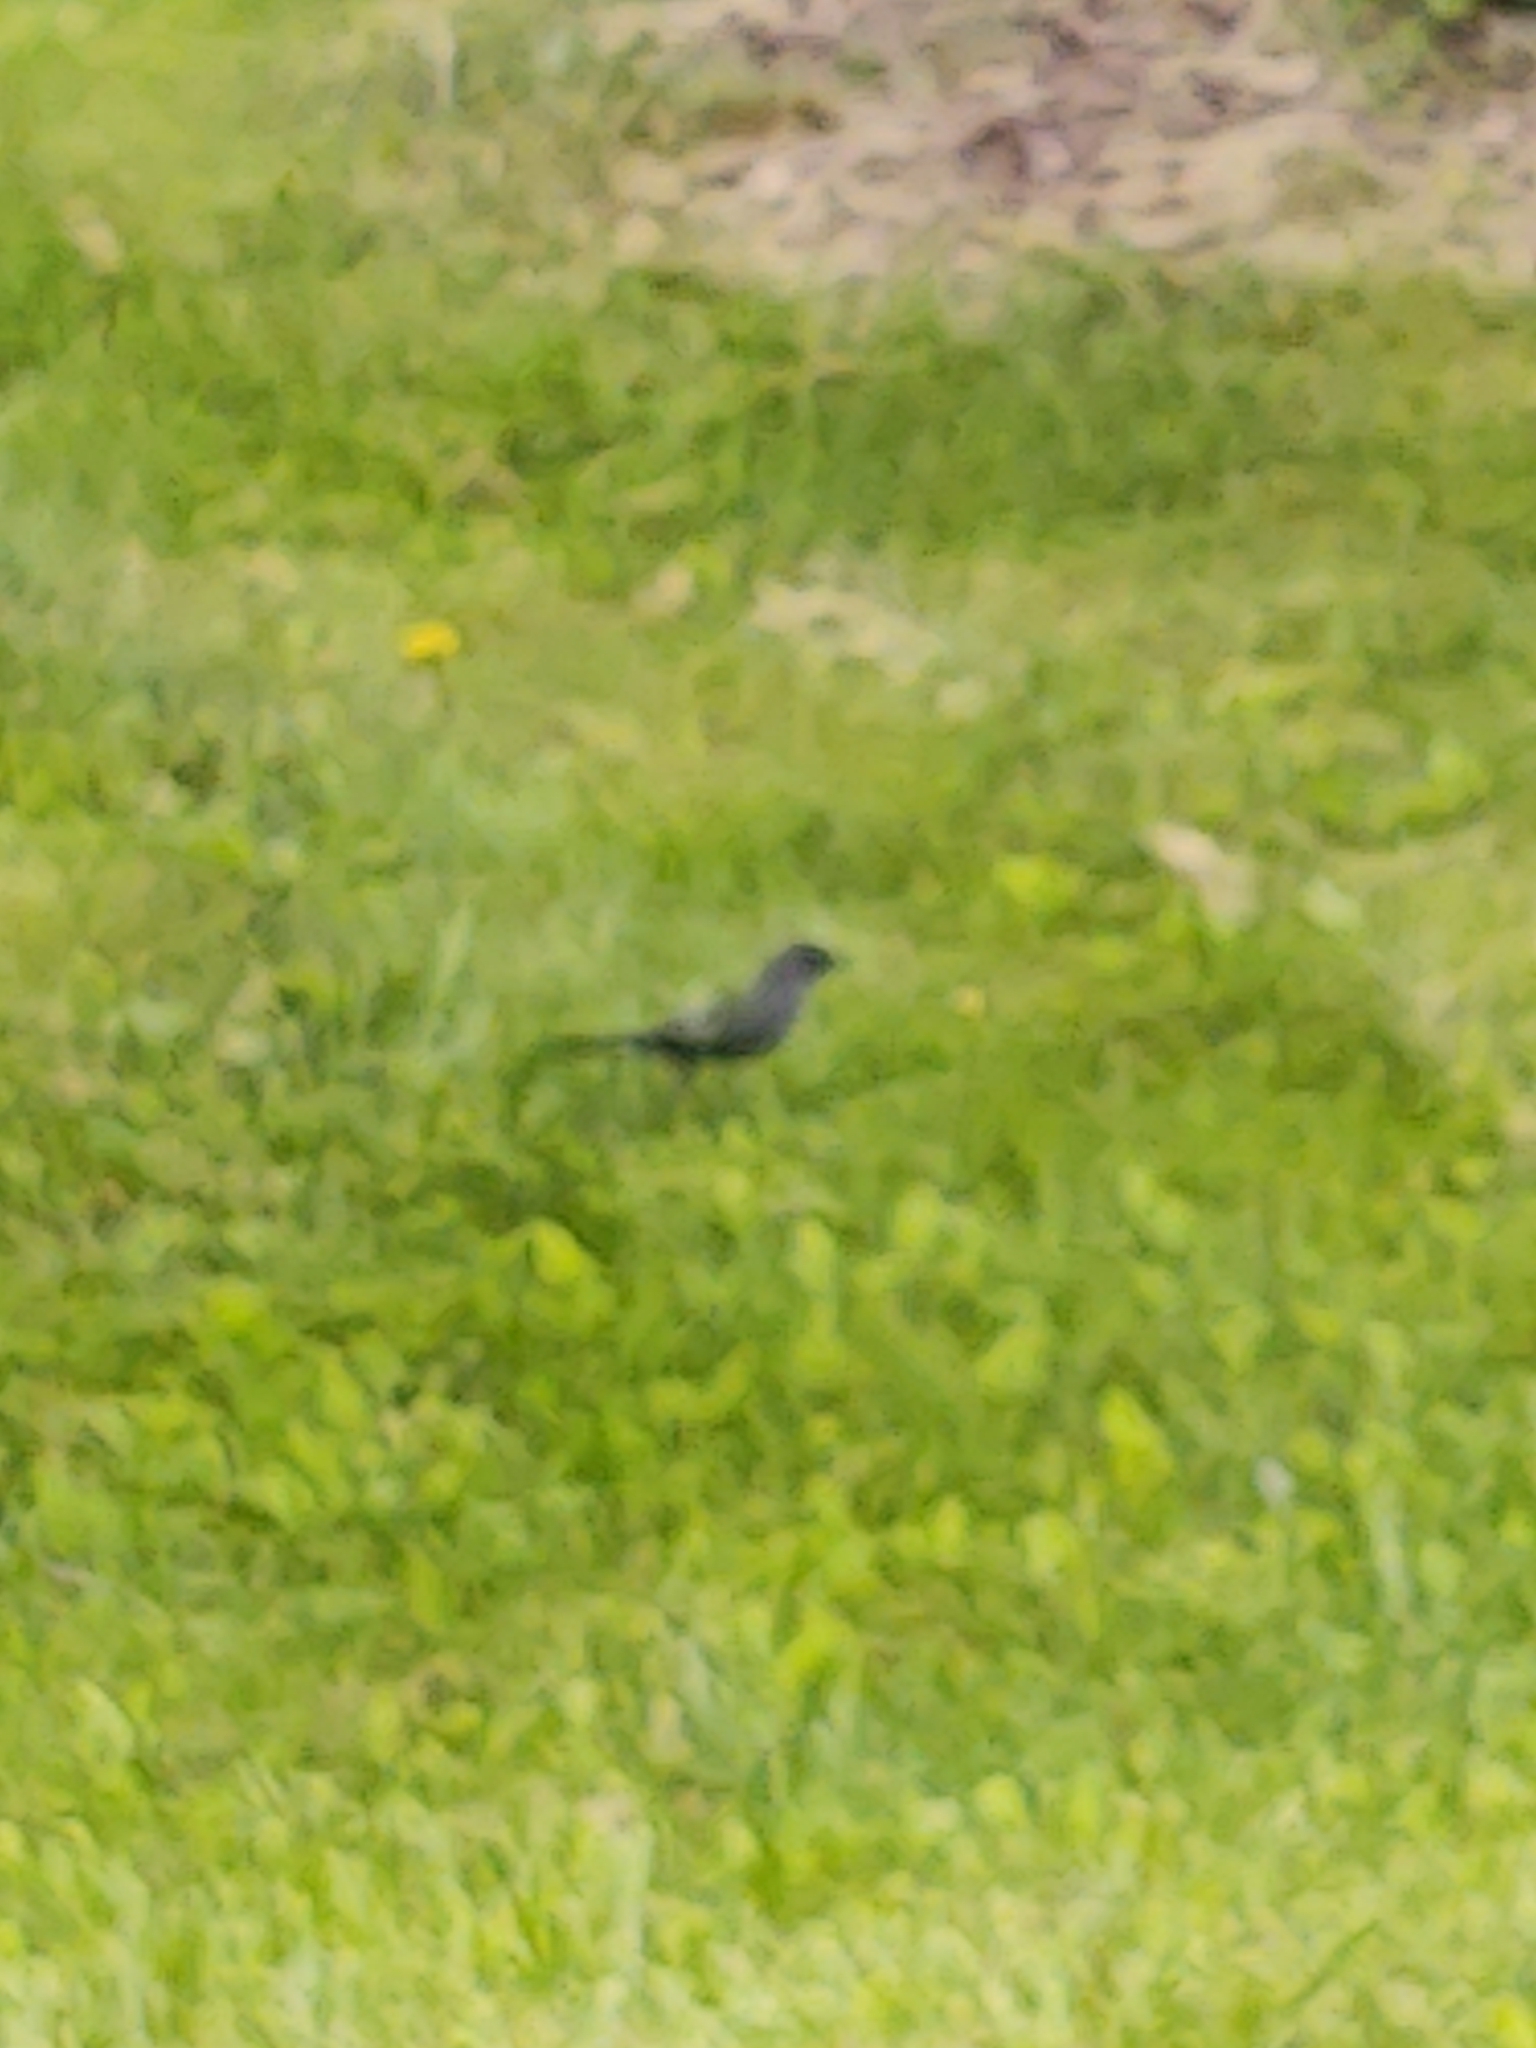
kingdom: Animalia
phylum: Chordata
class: Aves
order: Passeriformes
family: Mimidae
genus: Dumetella
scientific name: Dumetella carolinensis
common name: Gray catbird
